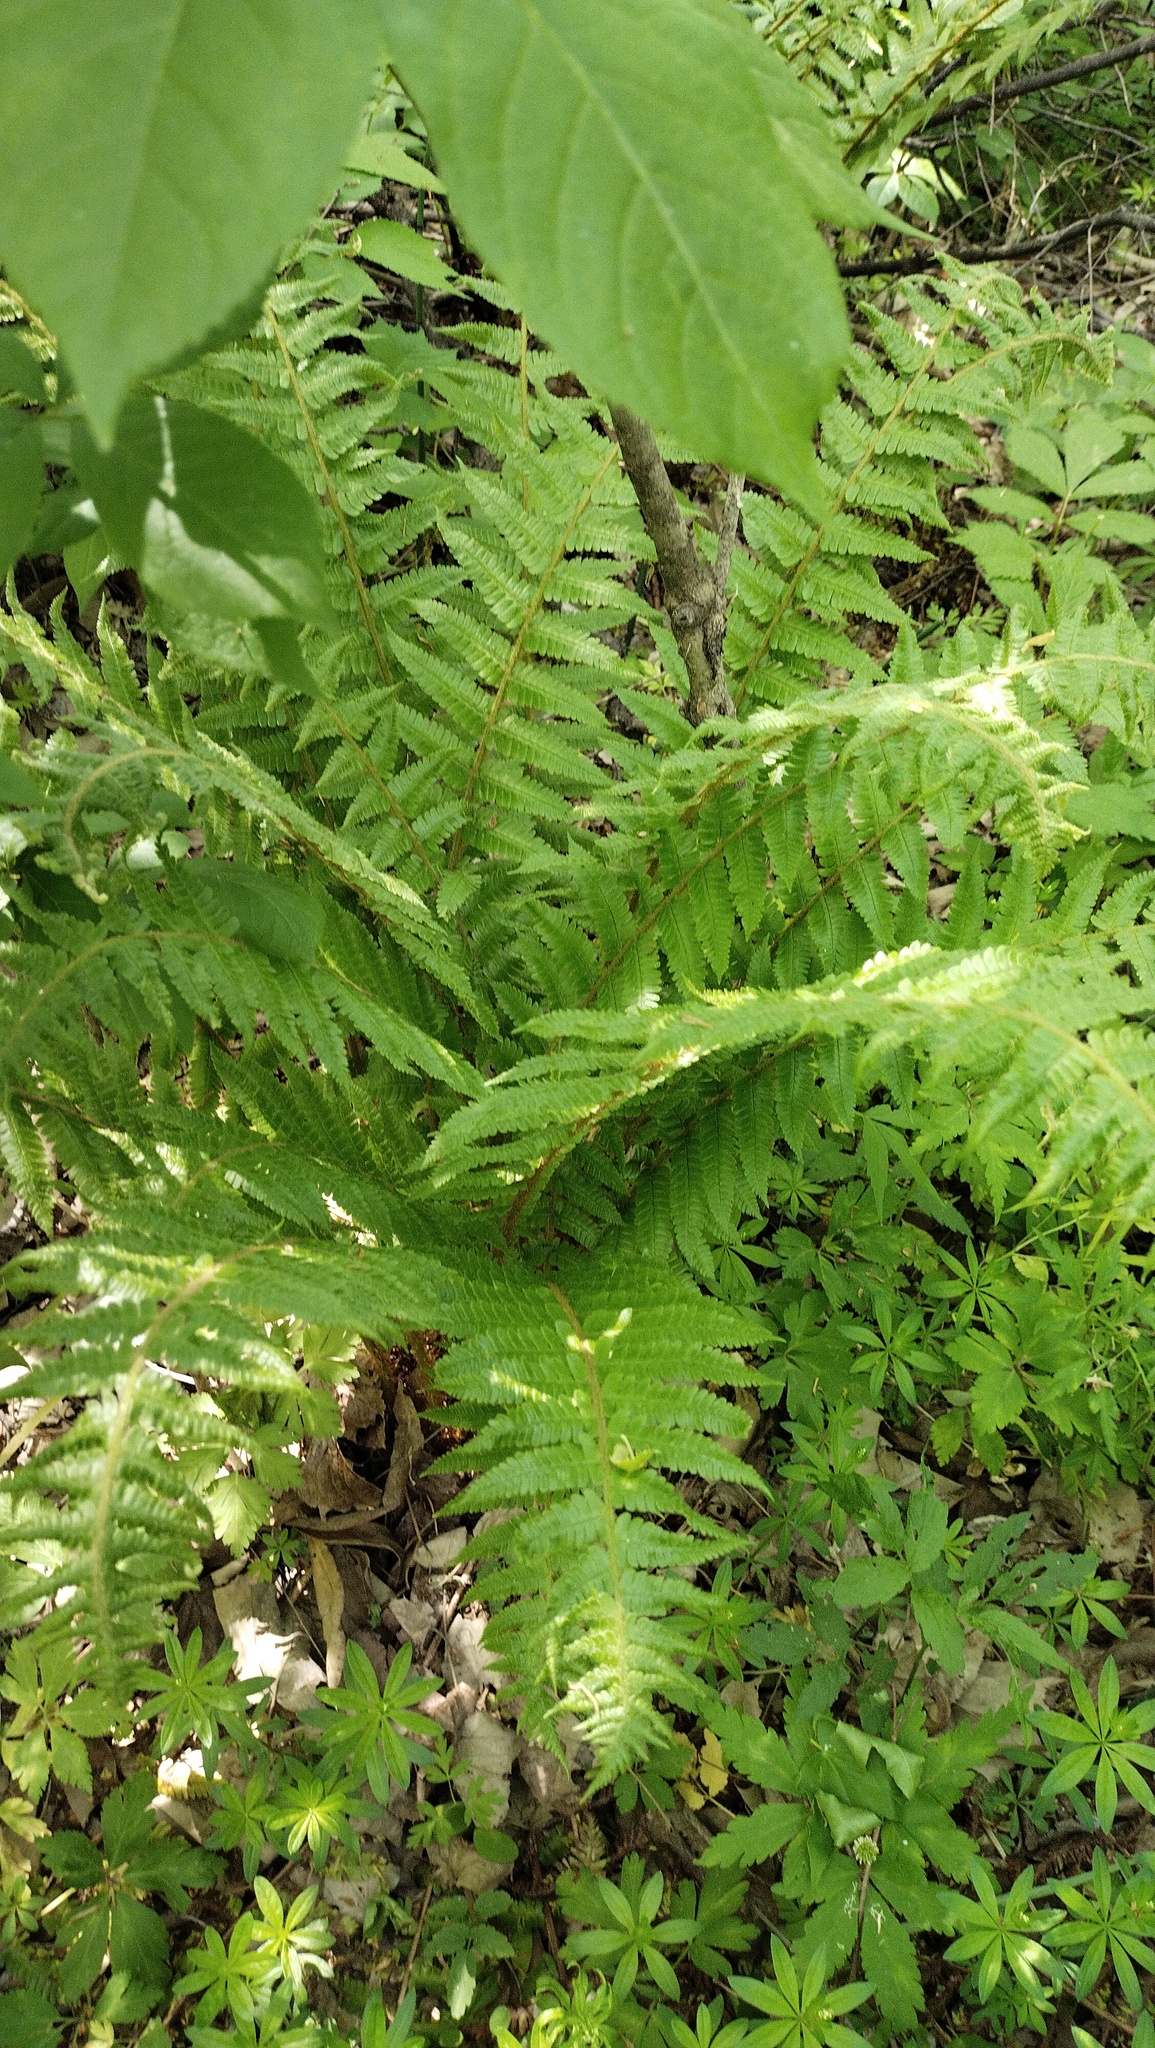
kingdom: Plantae
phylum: Tracheophyta
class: Polypodiopsida
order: Polypodiales
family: Dryopteridaceae
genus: Dryopteris
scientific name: Dryopteris crassirhizoma
